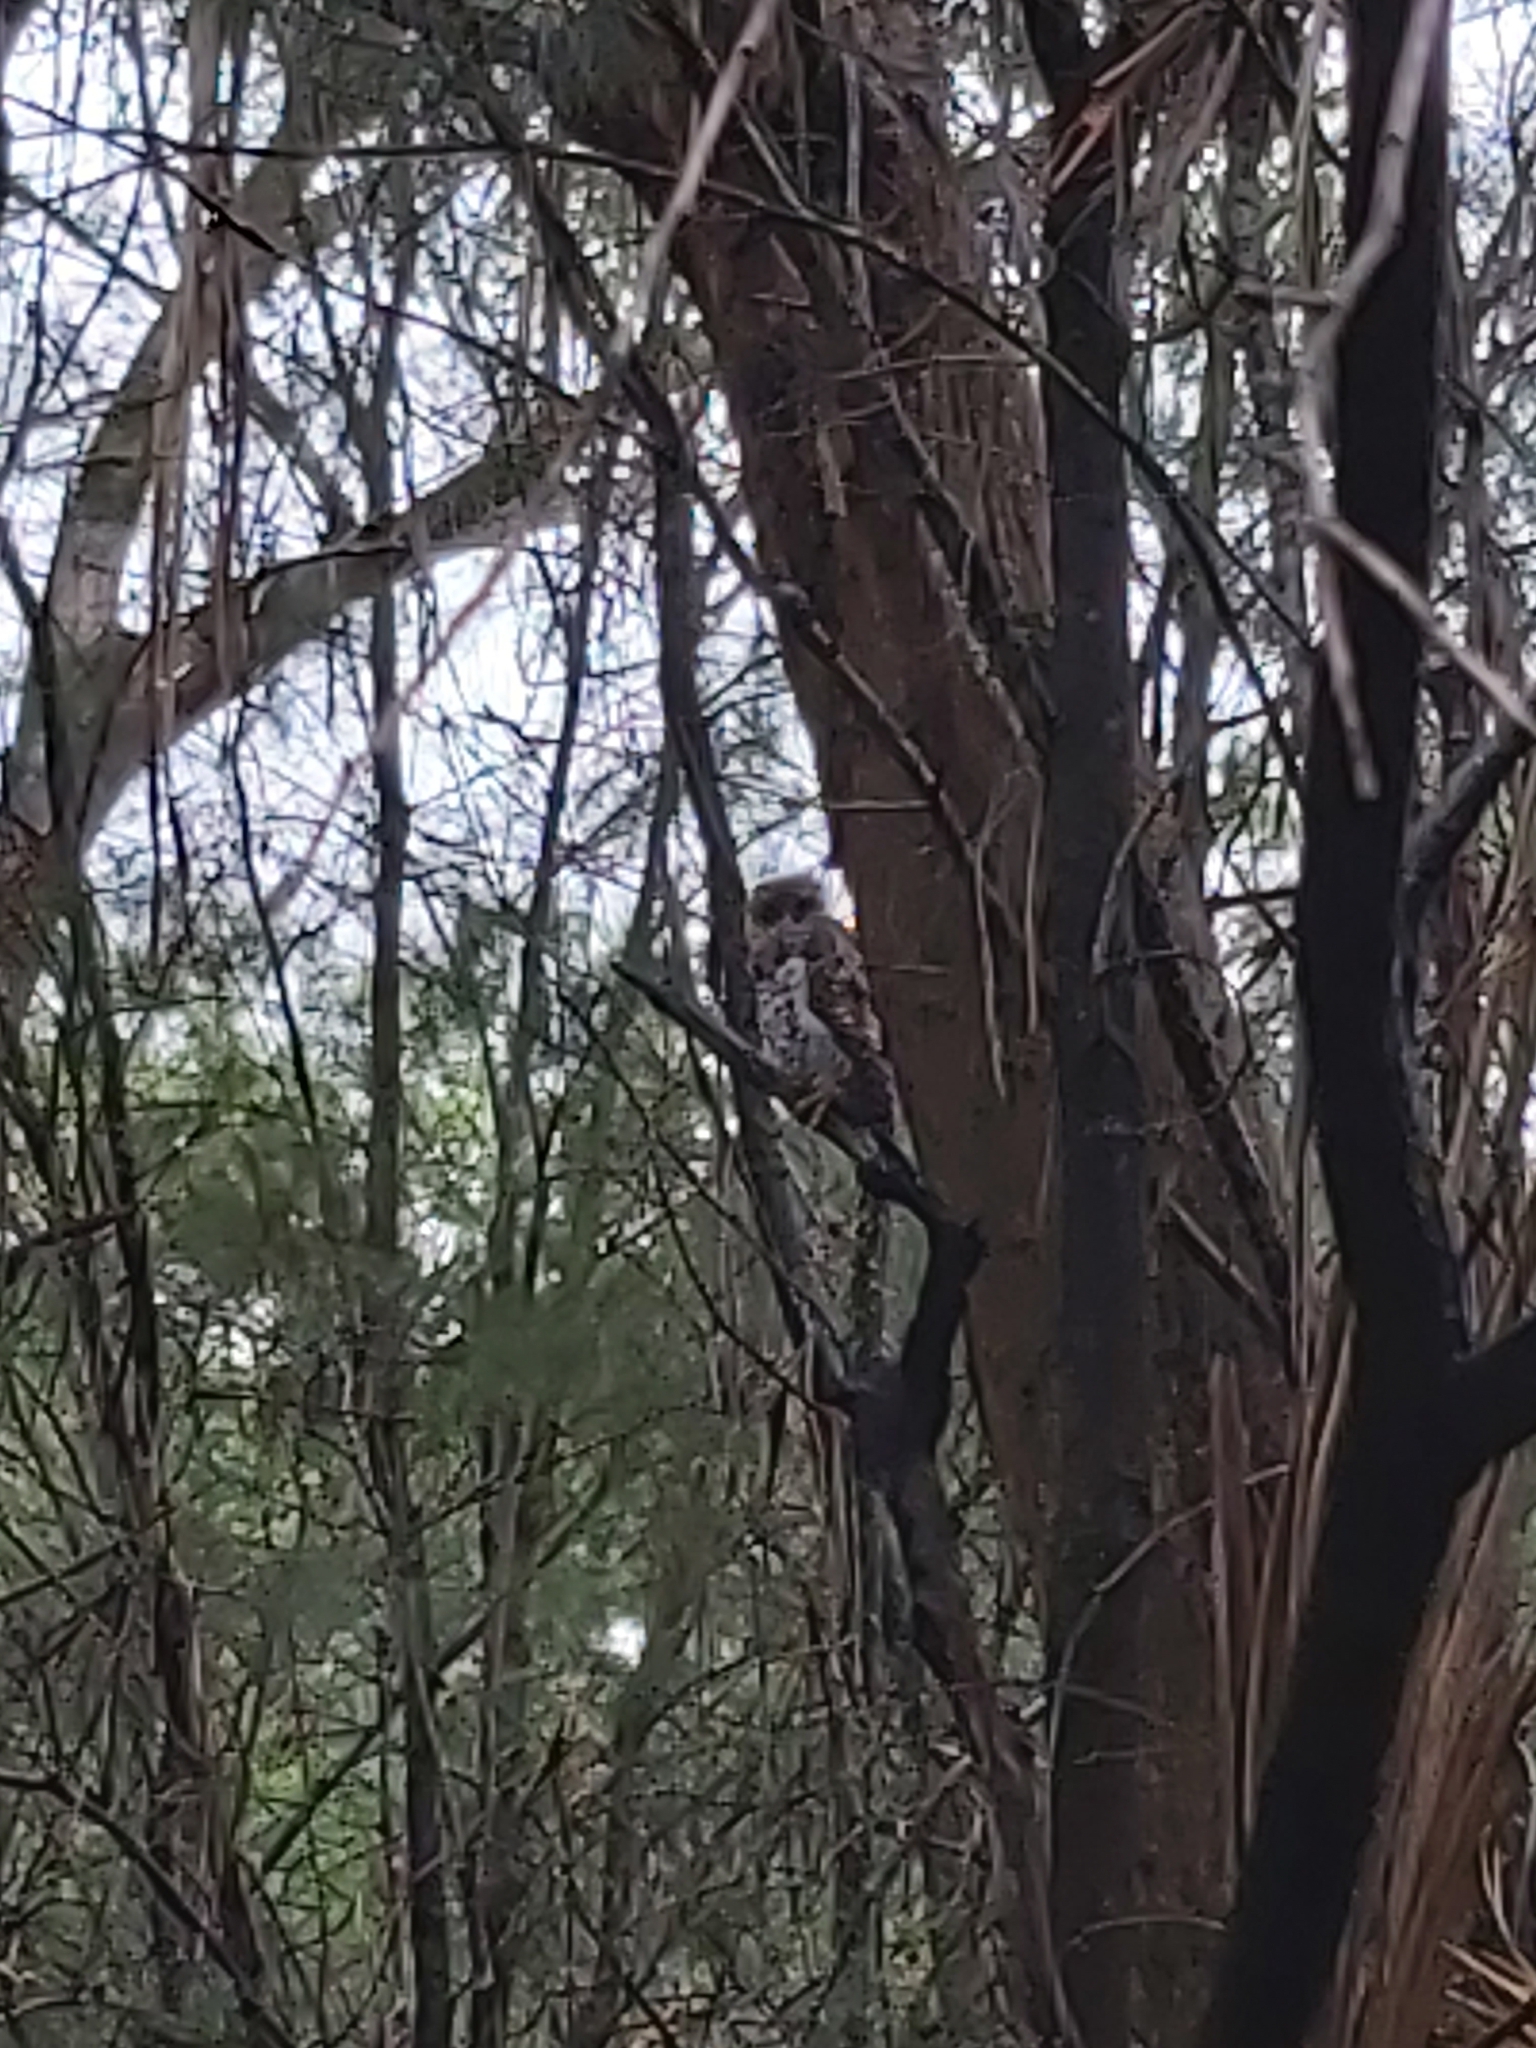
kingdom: Animalia
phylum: Chordata
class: Aves
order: Strigiformes
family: Strigidae
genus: Ninox
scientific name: Ninox strenua
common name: Powerful owl
